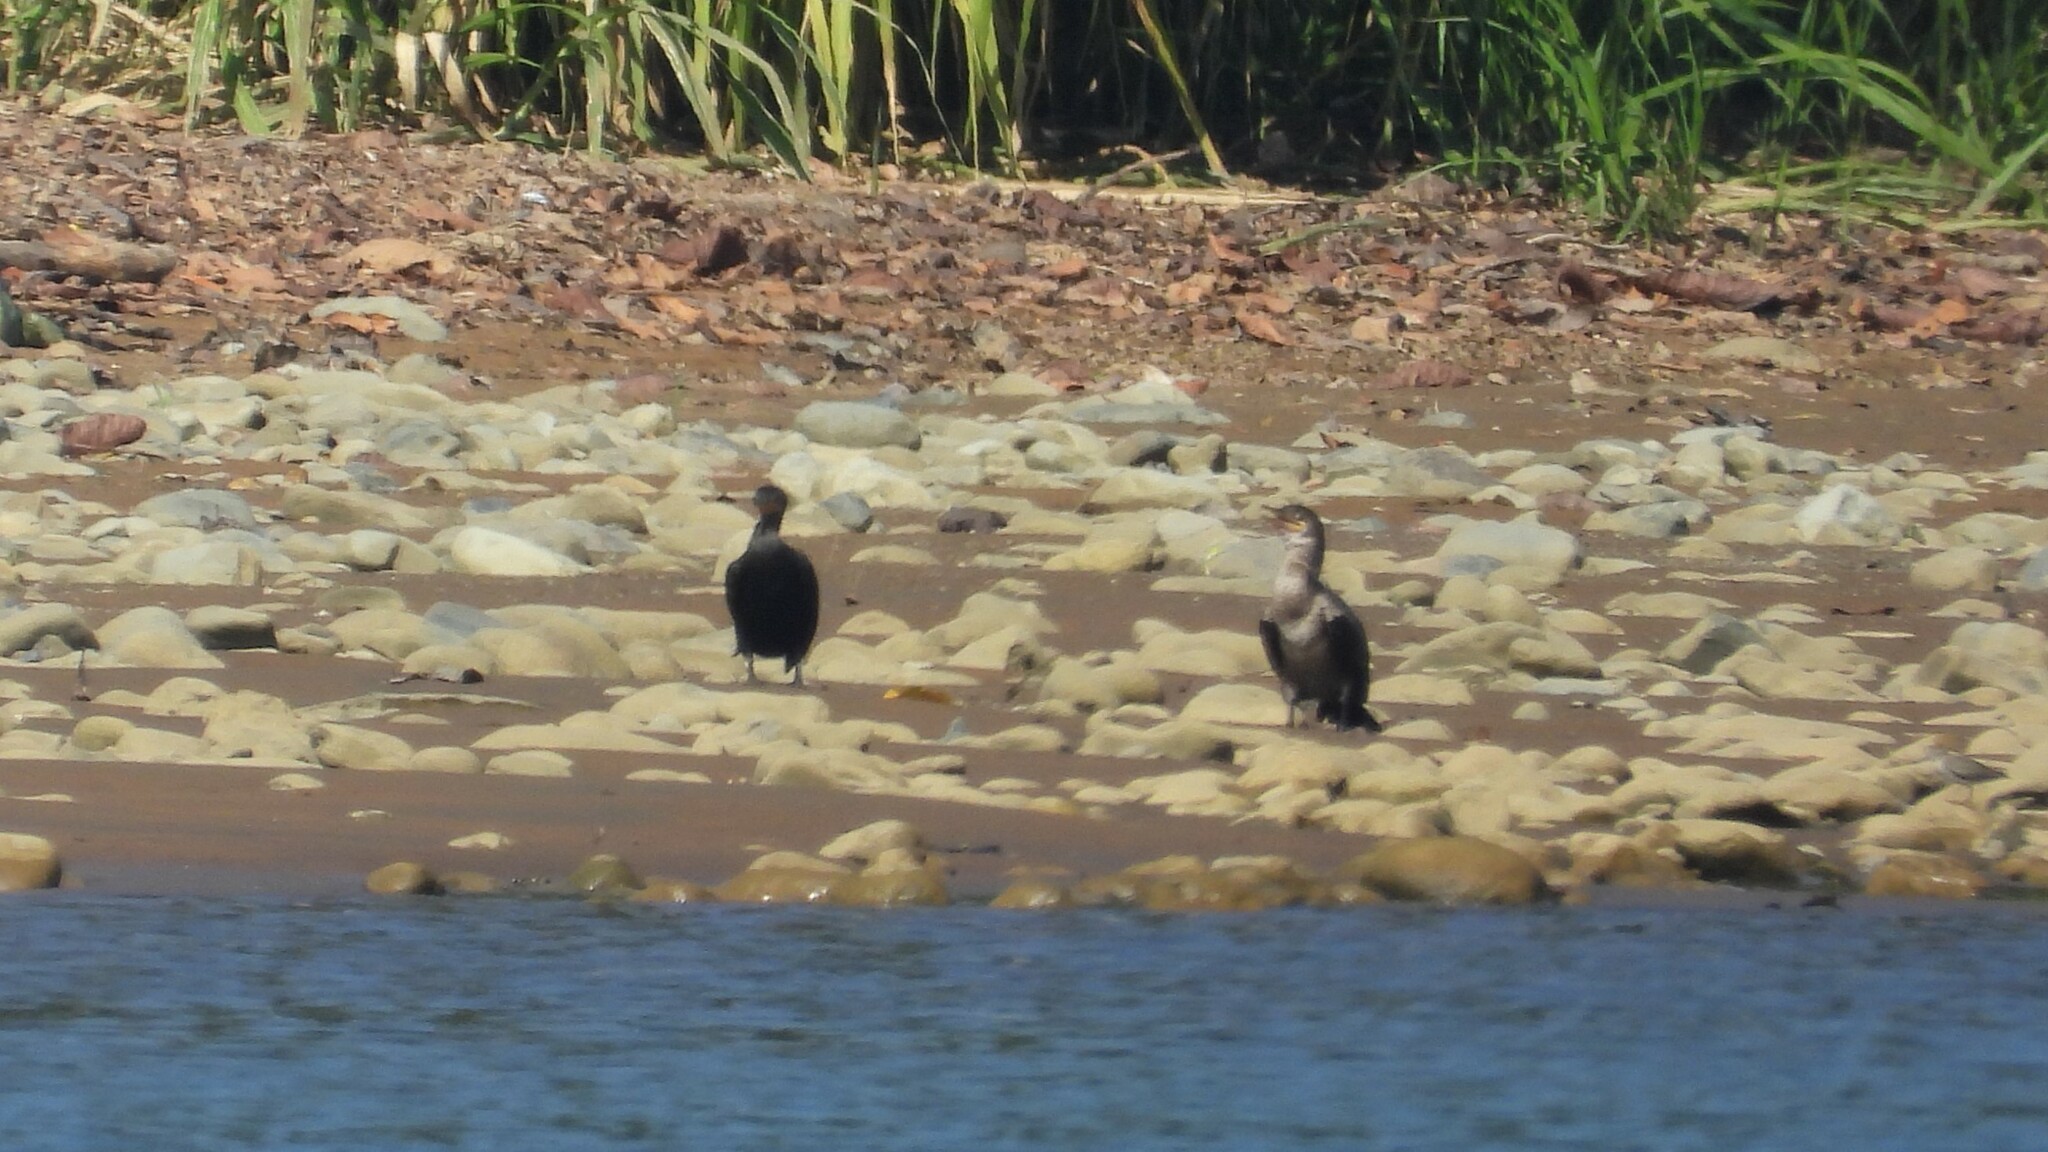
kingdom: Animalia
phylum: Chordata
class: Aves
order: Suliformes
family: Phalacrocoracidae
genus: Phalacrocorax
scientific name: Phalacrocorax brasilianus
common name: Neotropic cormorant
